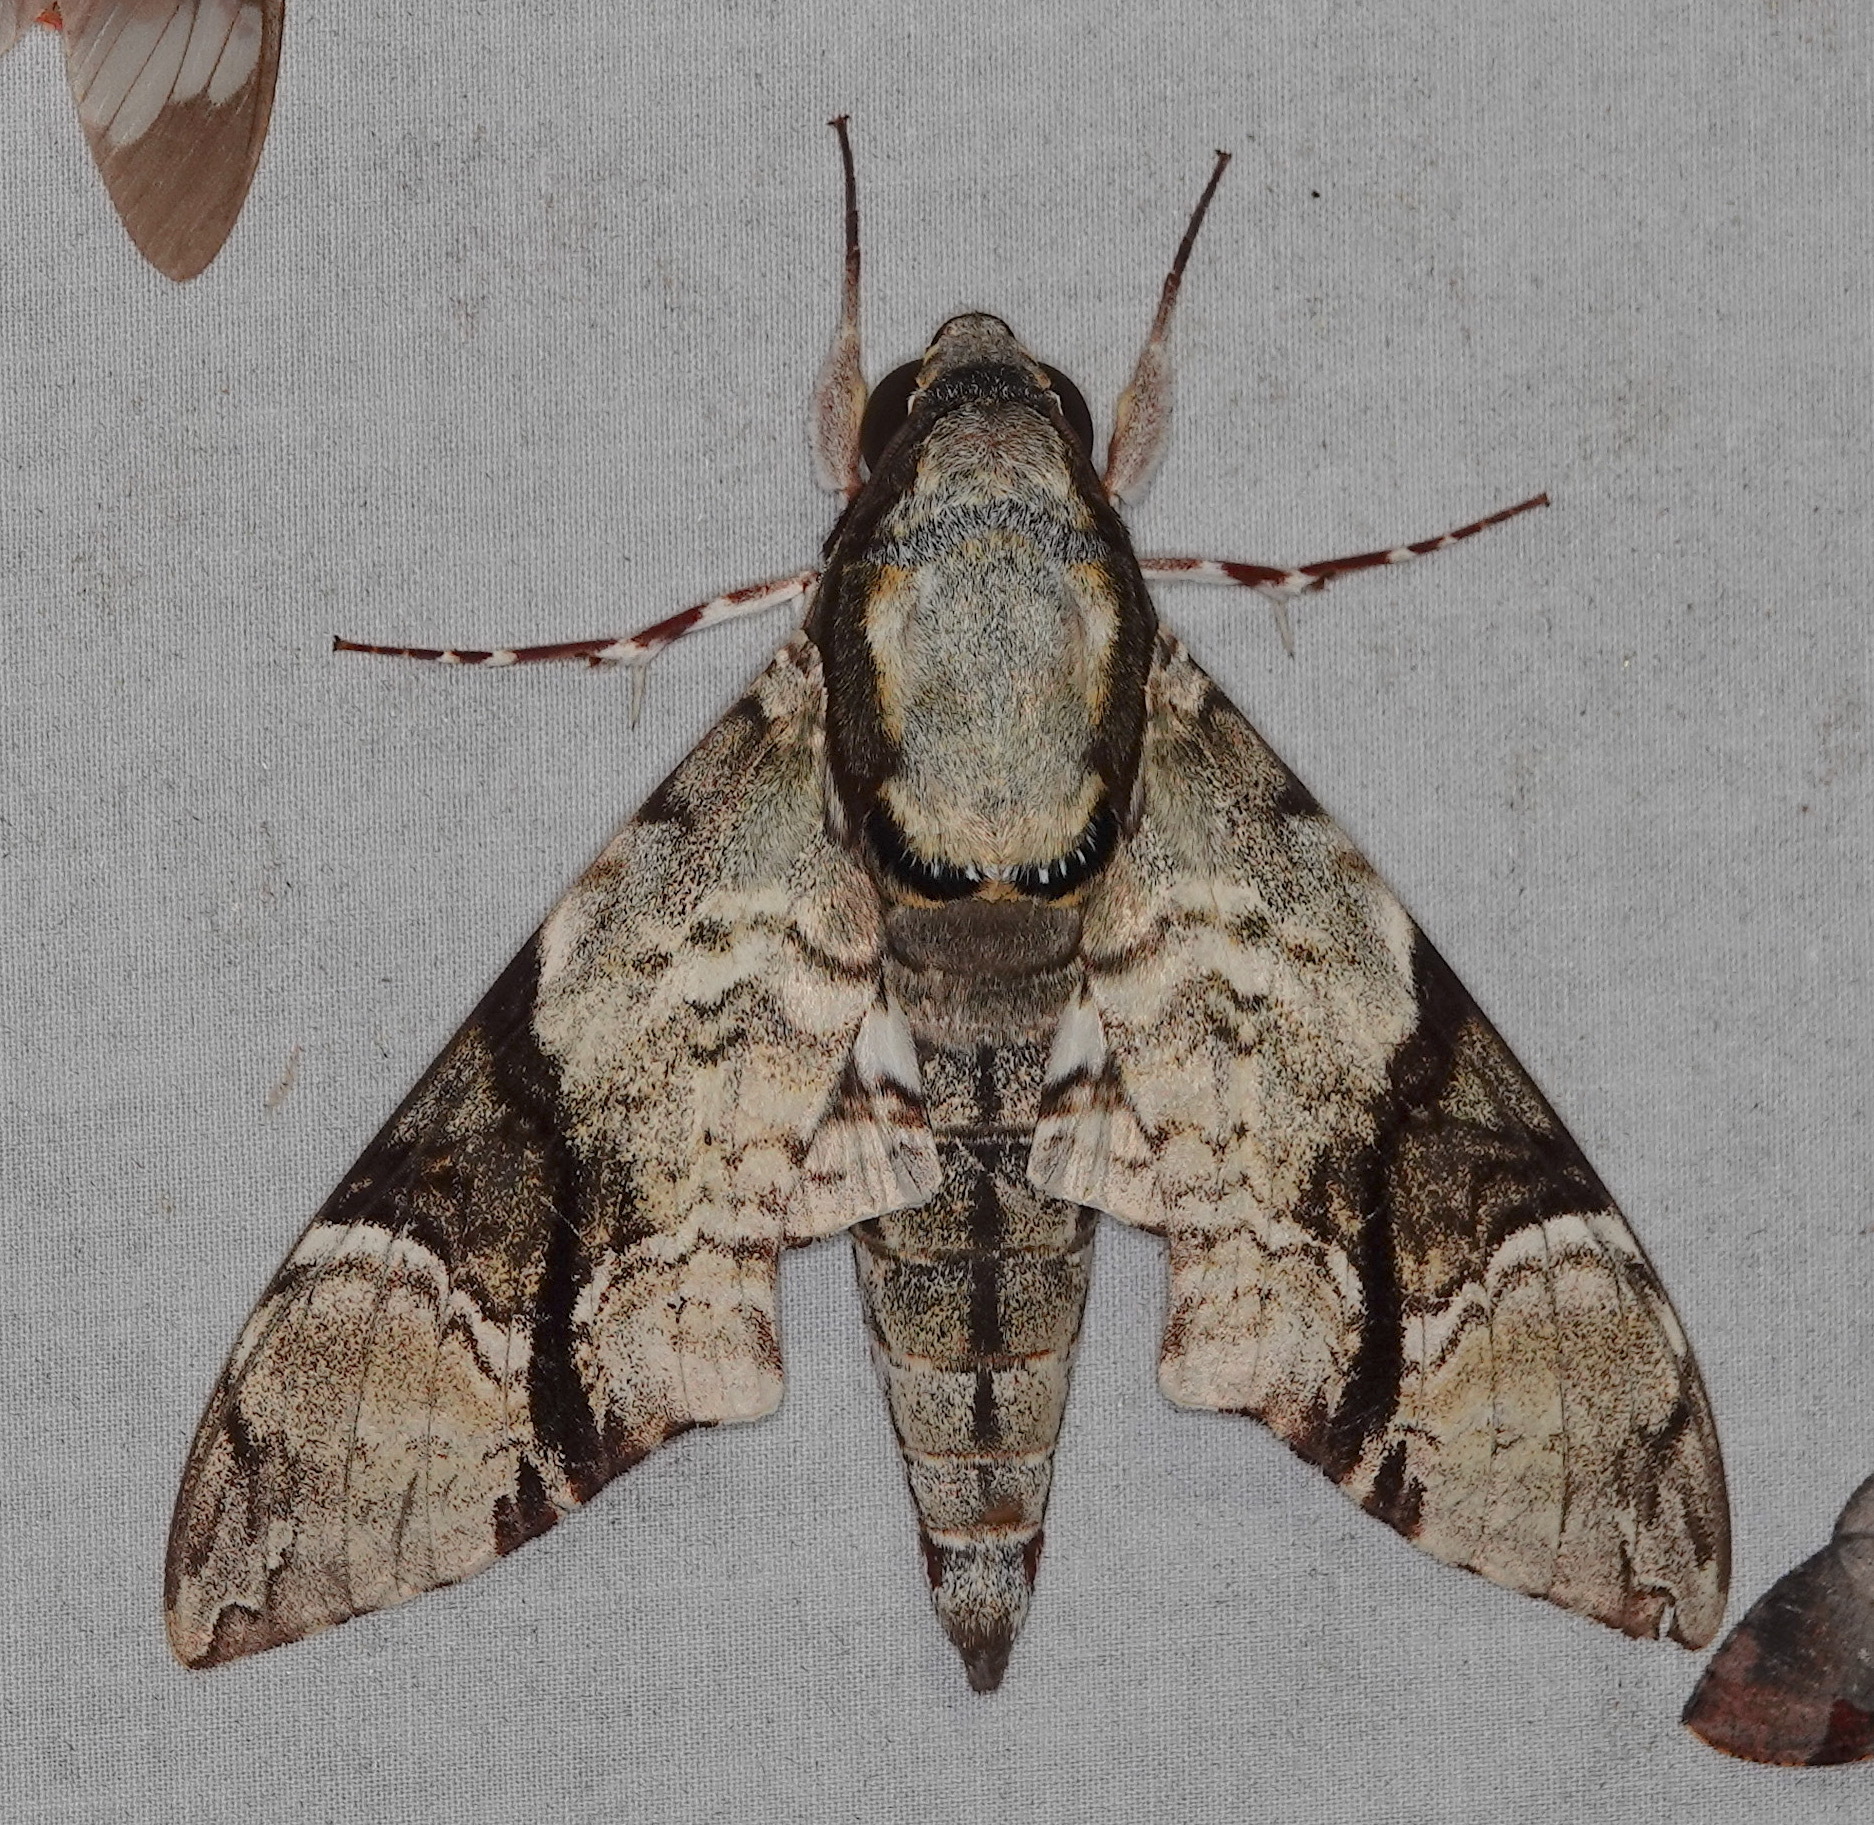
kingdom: Animalia
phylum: Arthropoda
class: Insecta
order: Lepidoptera
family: Sphingidae
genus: Megacorma
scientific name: Megacorma obliqua
